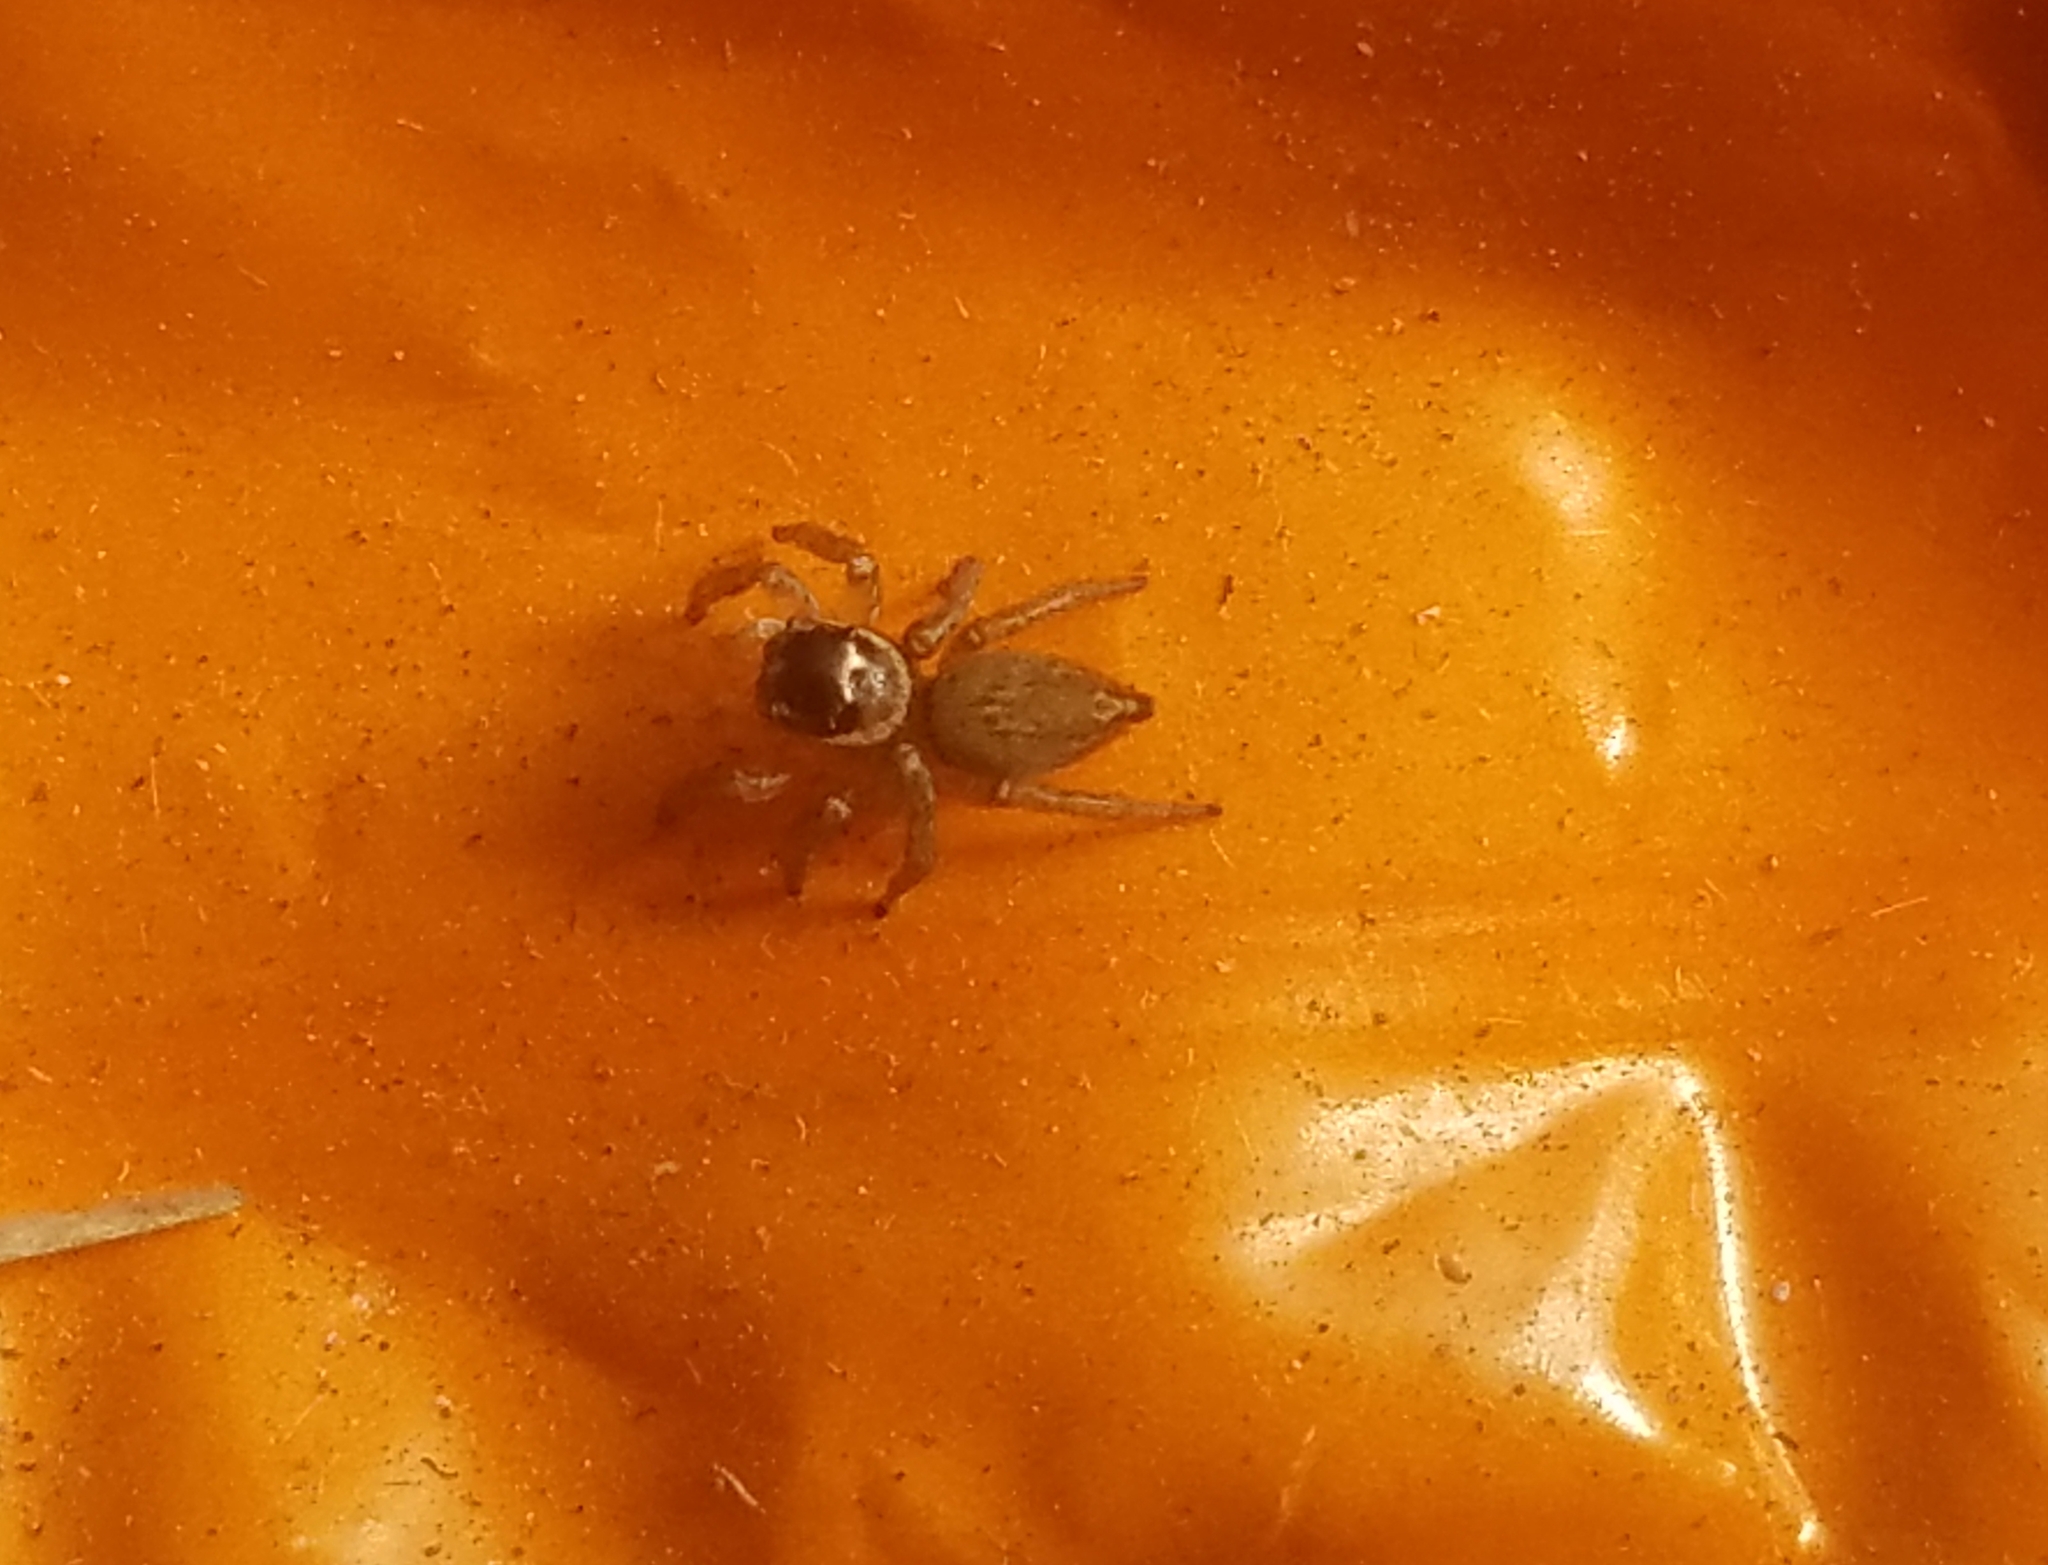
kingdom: Animalia
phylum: Arthropoda
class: Arachnida
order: Araneae
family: Salticidae
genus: Maratus
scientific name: Maratus griseus
